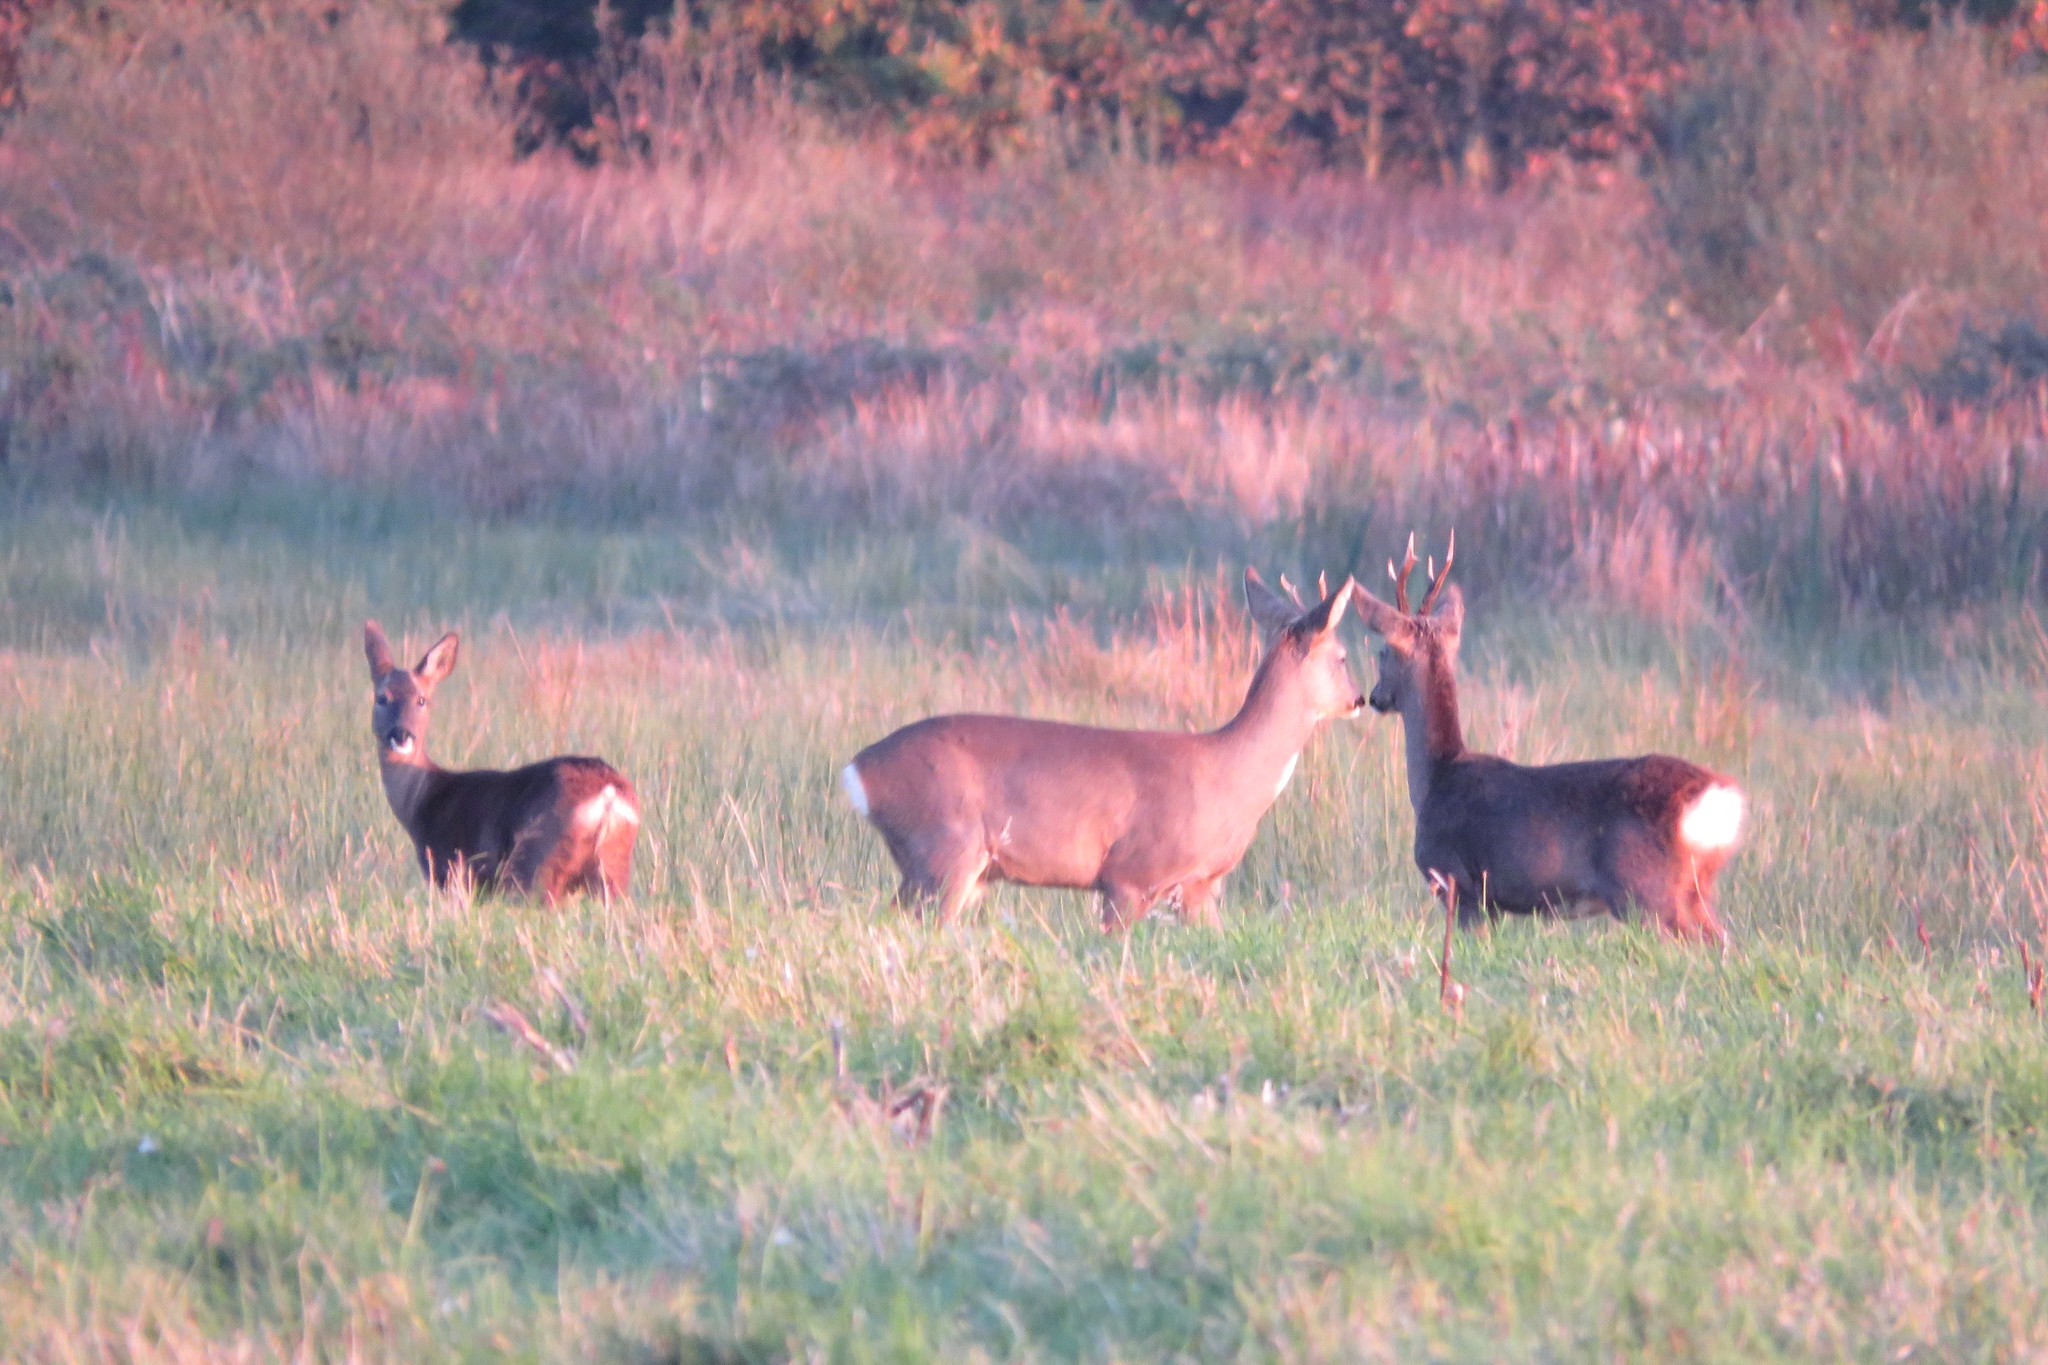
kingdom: Animalia
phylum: Chordata
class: Mammalia
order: Artiodactyla
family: Cervidae
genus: Capreolus
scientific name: Capreolus capreolus
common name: Western roe deer
